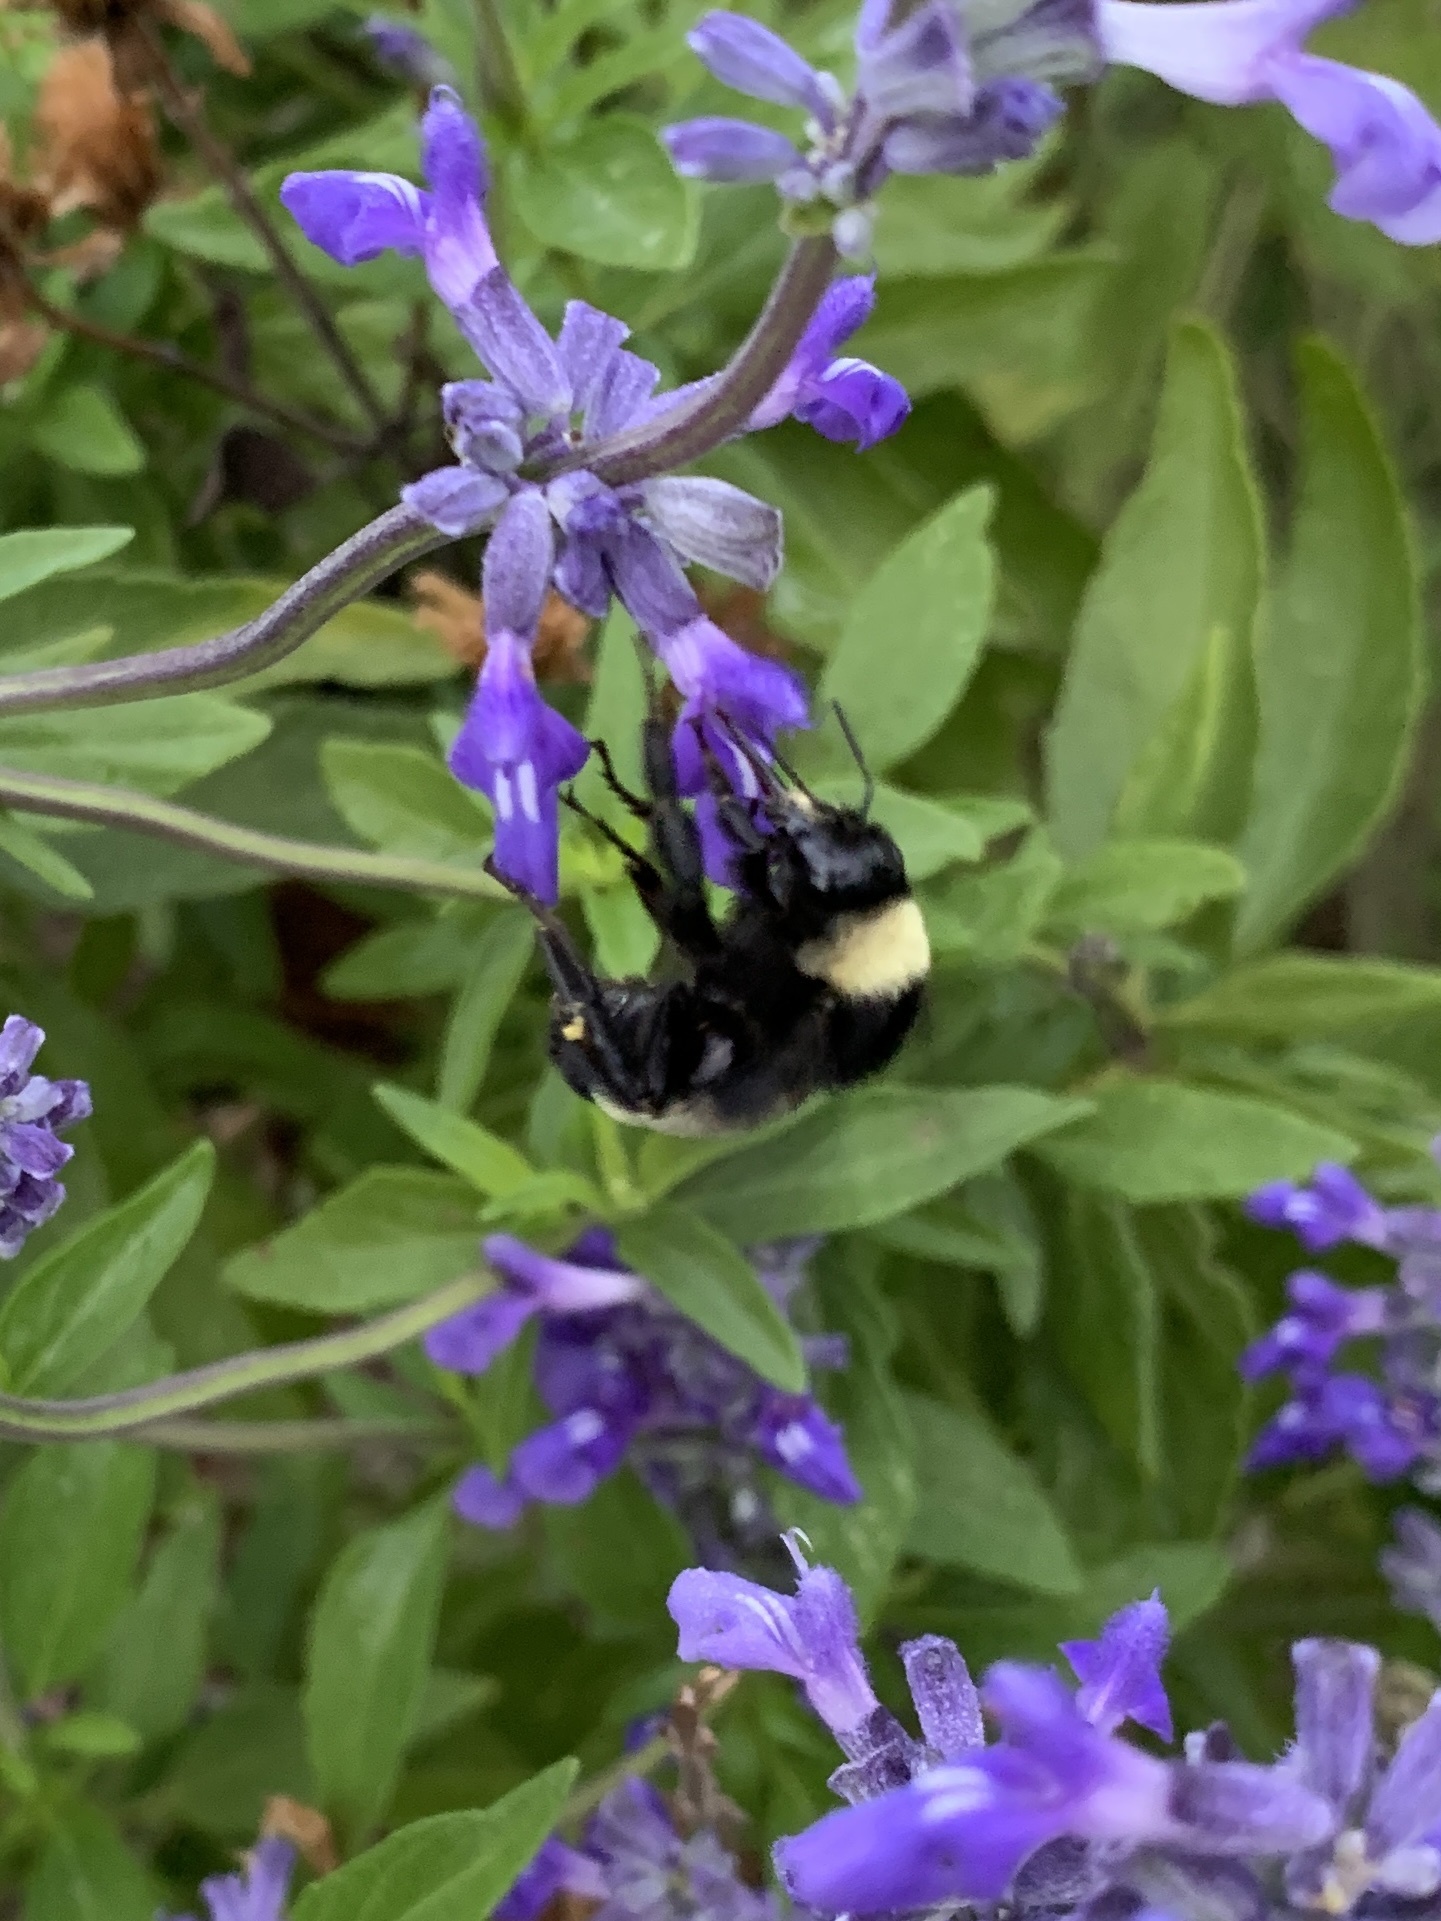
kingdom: Animalia
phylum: Arthropoda
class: Insecta
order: Hymenoptera
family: Apidae
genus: Bombus
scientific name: Bombus pensylvanicus
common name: Bumble bee
